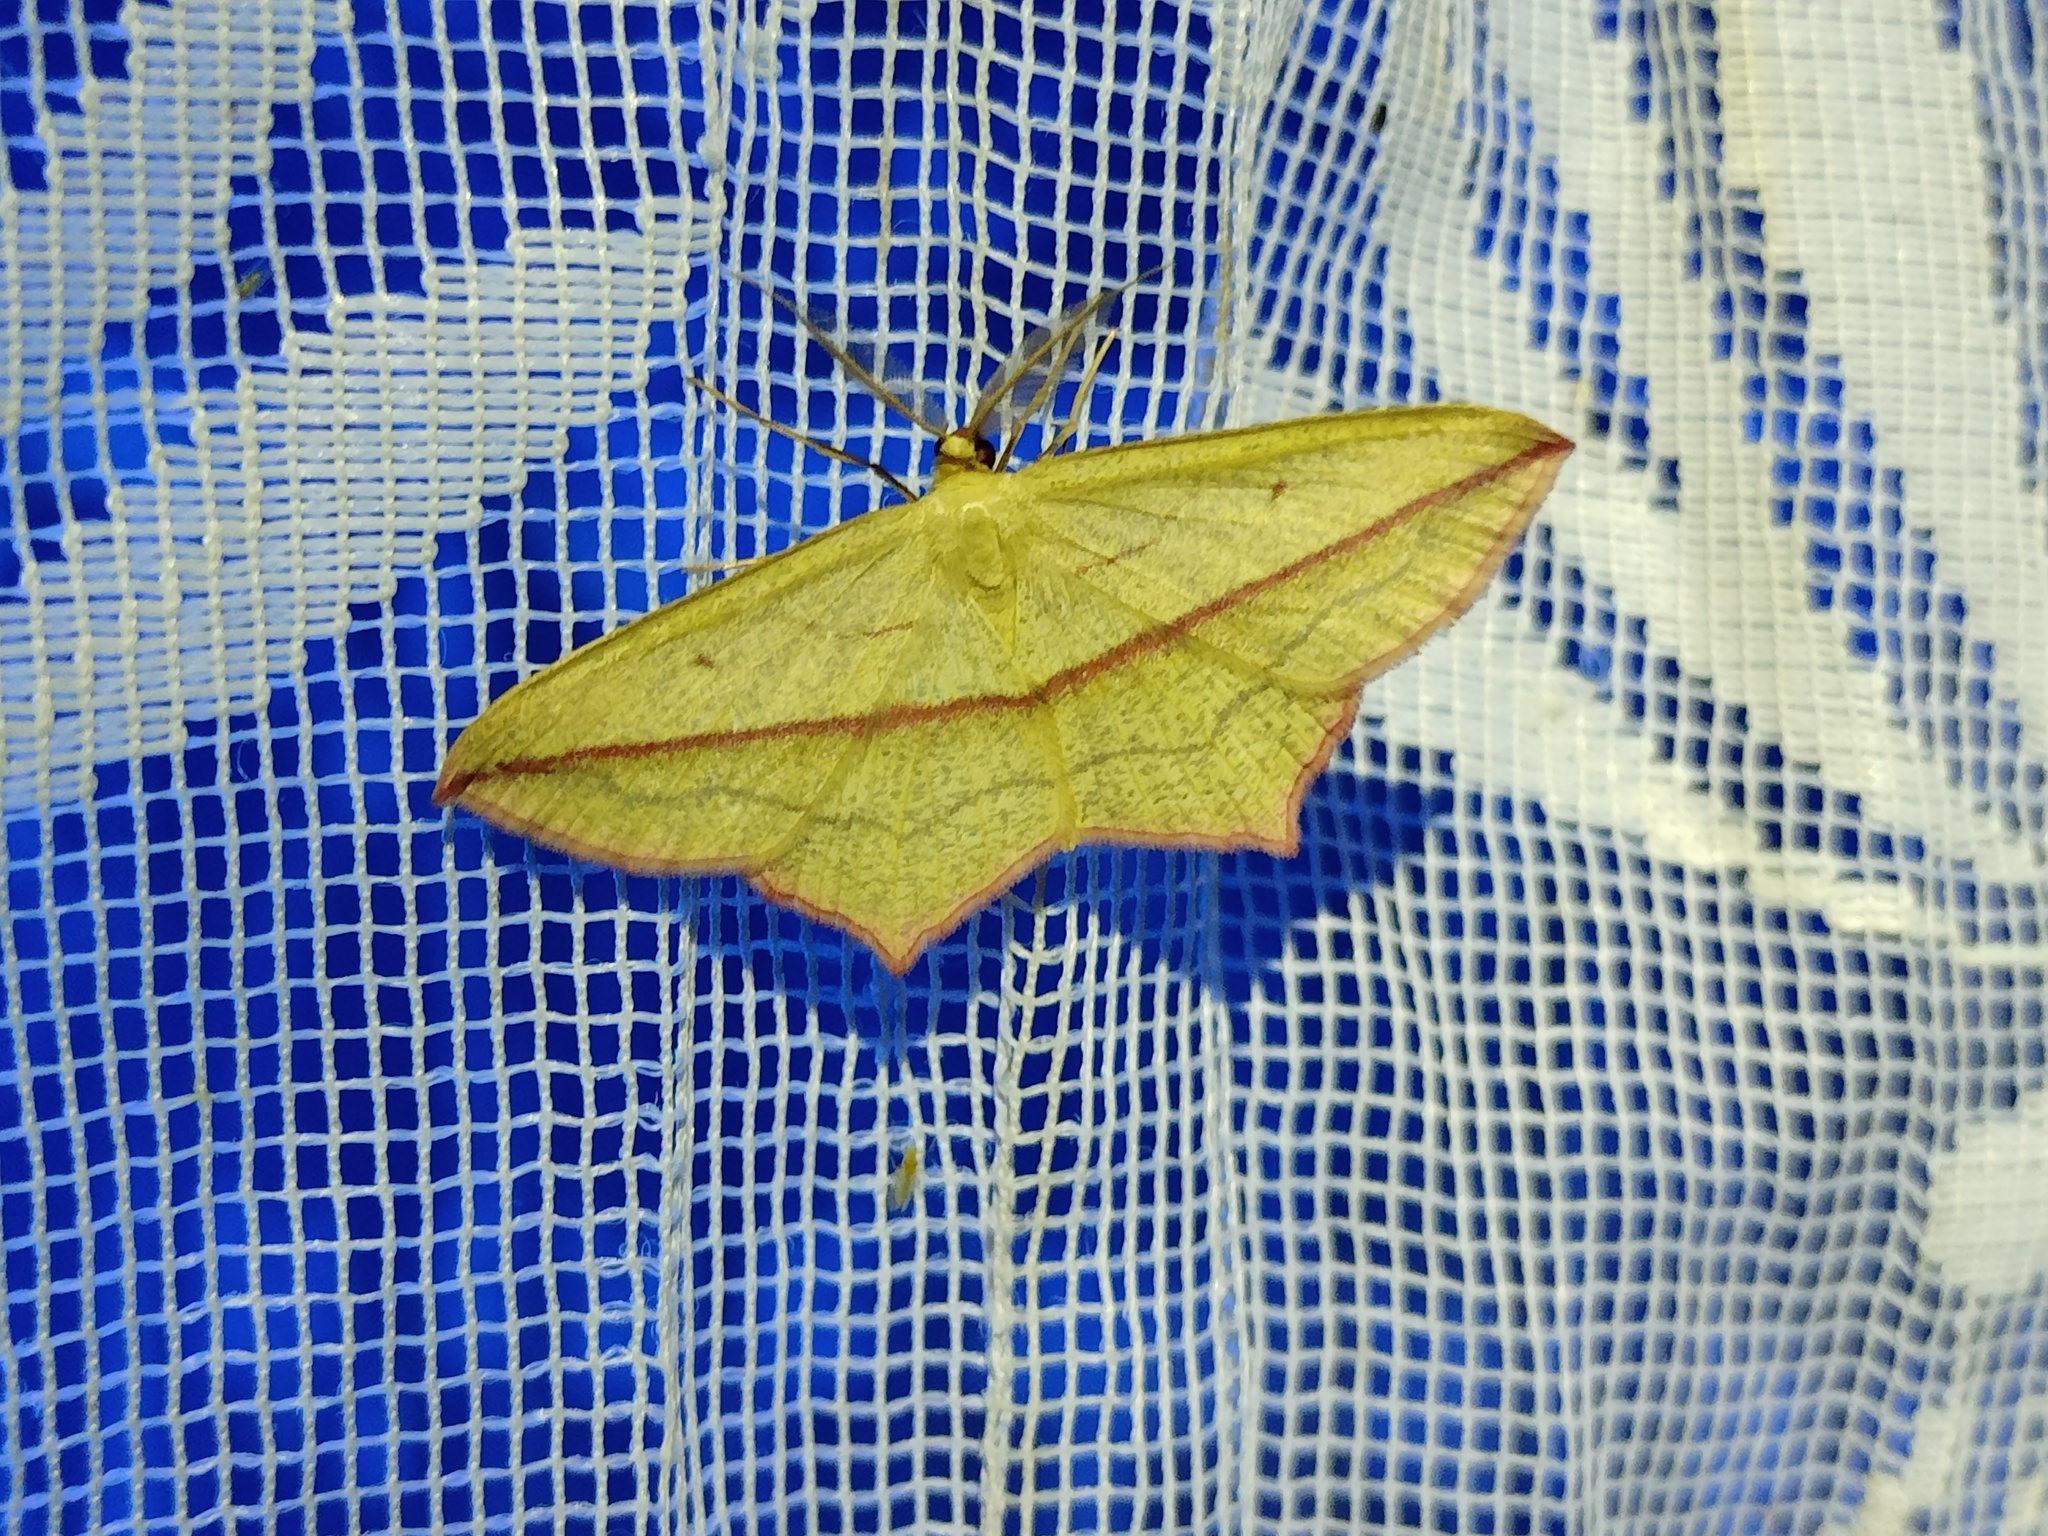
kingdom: Animalia
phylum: Arthropoda
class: Insecta
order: Lepidoptera
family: Geometridae
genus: Timandra
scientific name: Timandra comae
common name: Blood-vein
